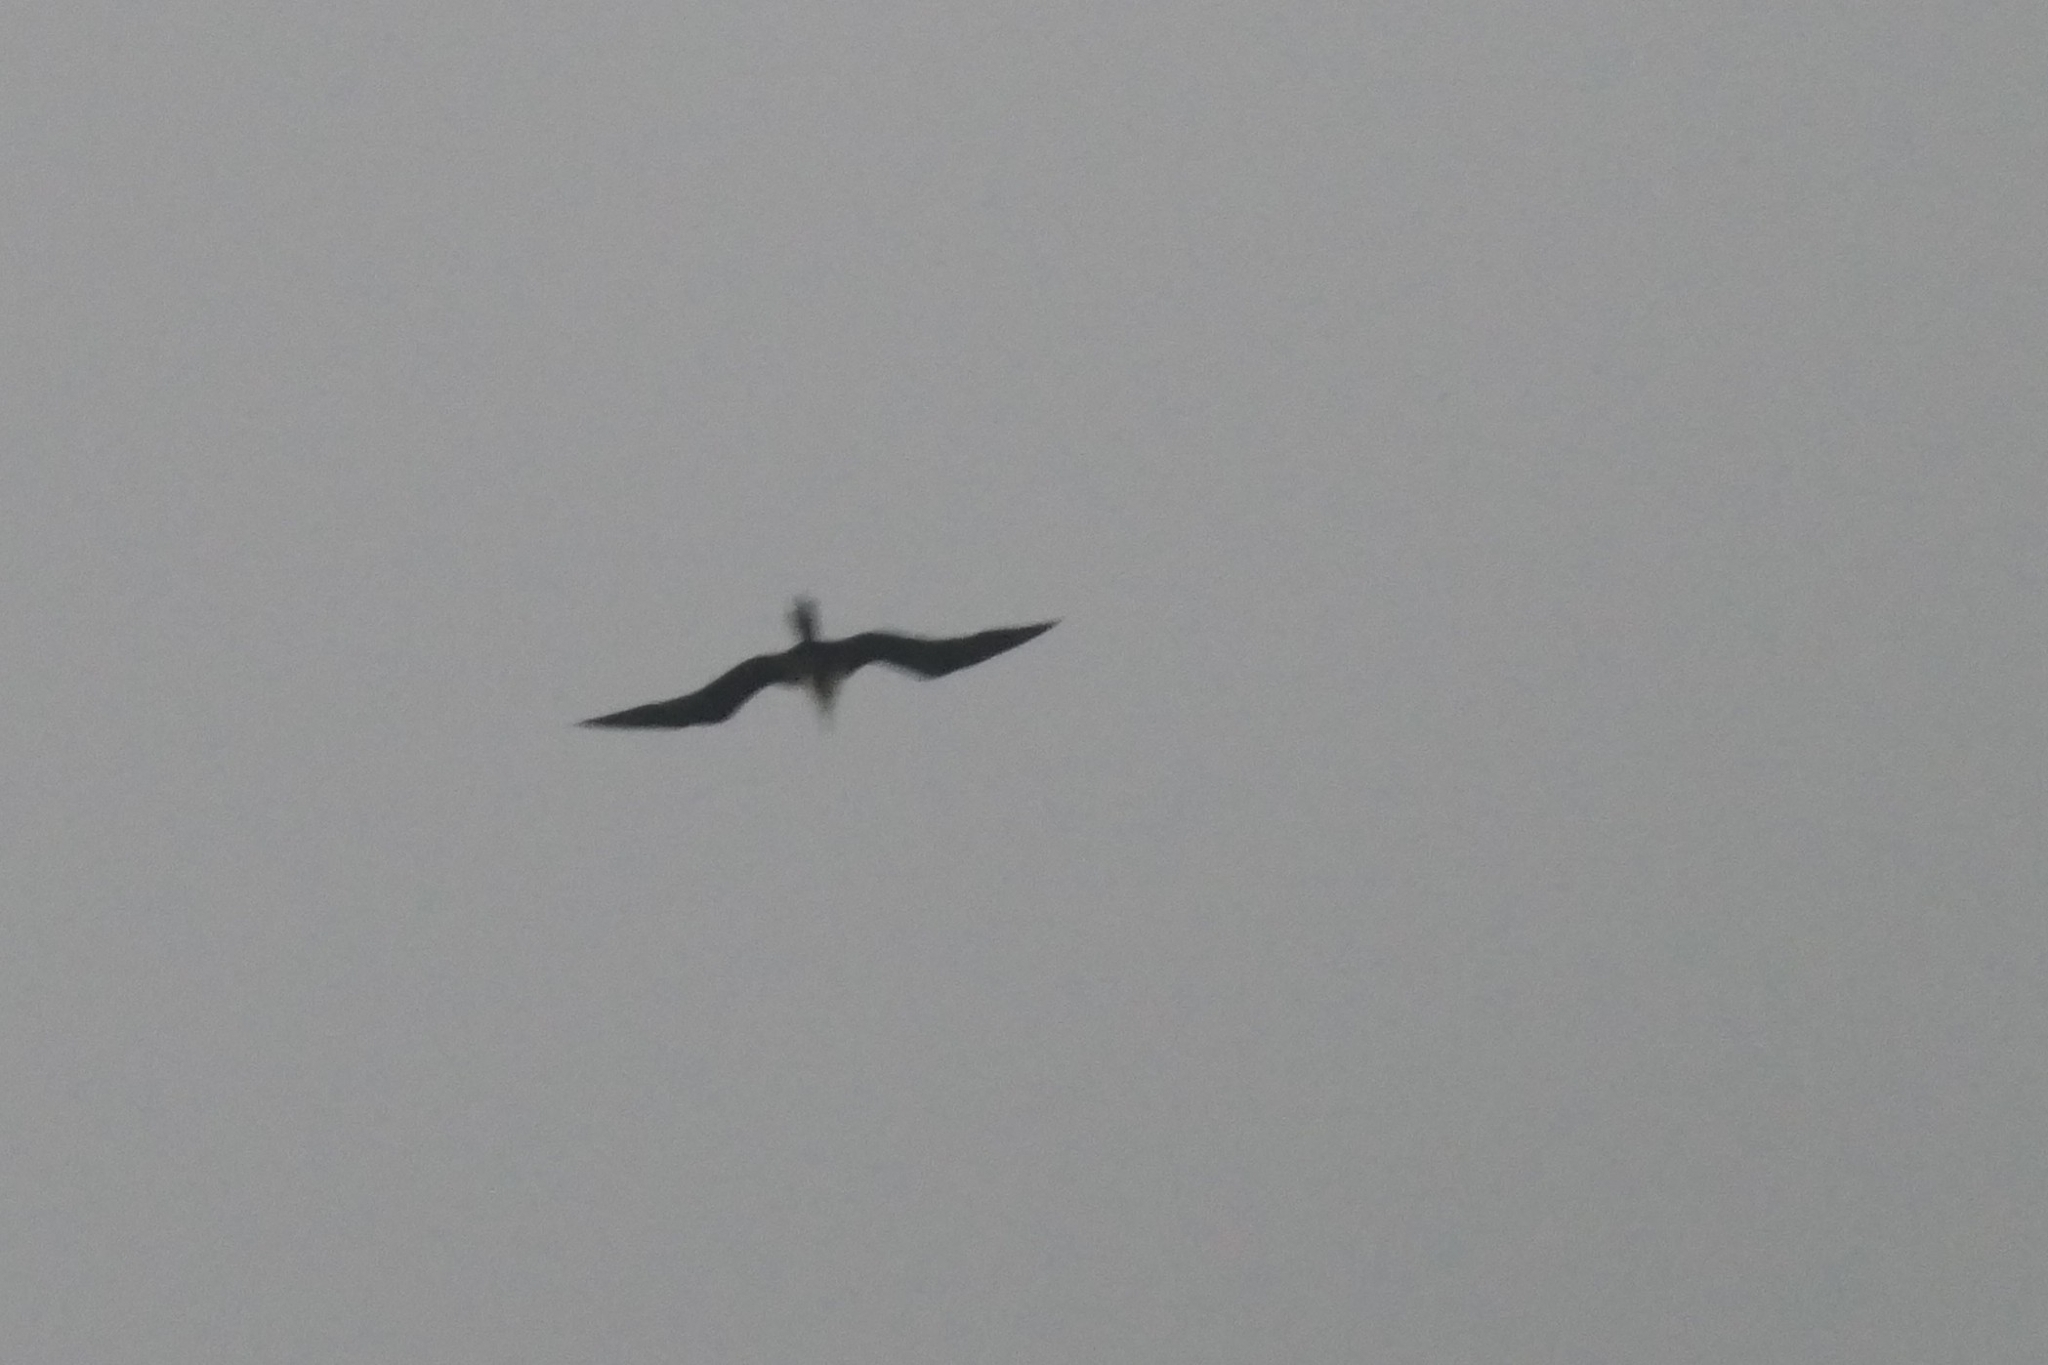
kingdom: Animalia
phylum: Chordata
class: Aves
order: Suliformes
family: Fregatidae
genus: Fregata
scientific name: Fregata magnificens
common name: Magnificent frigatebird
